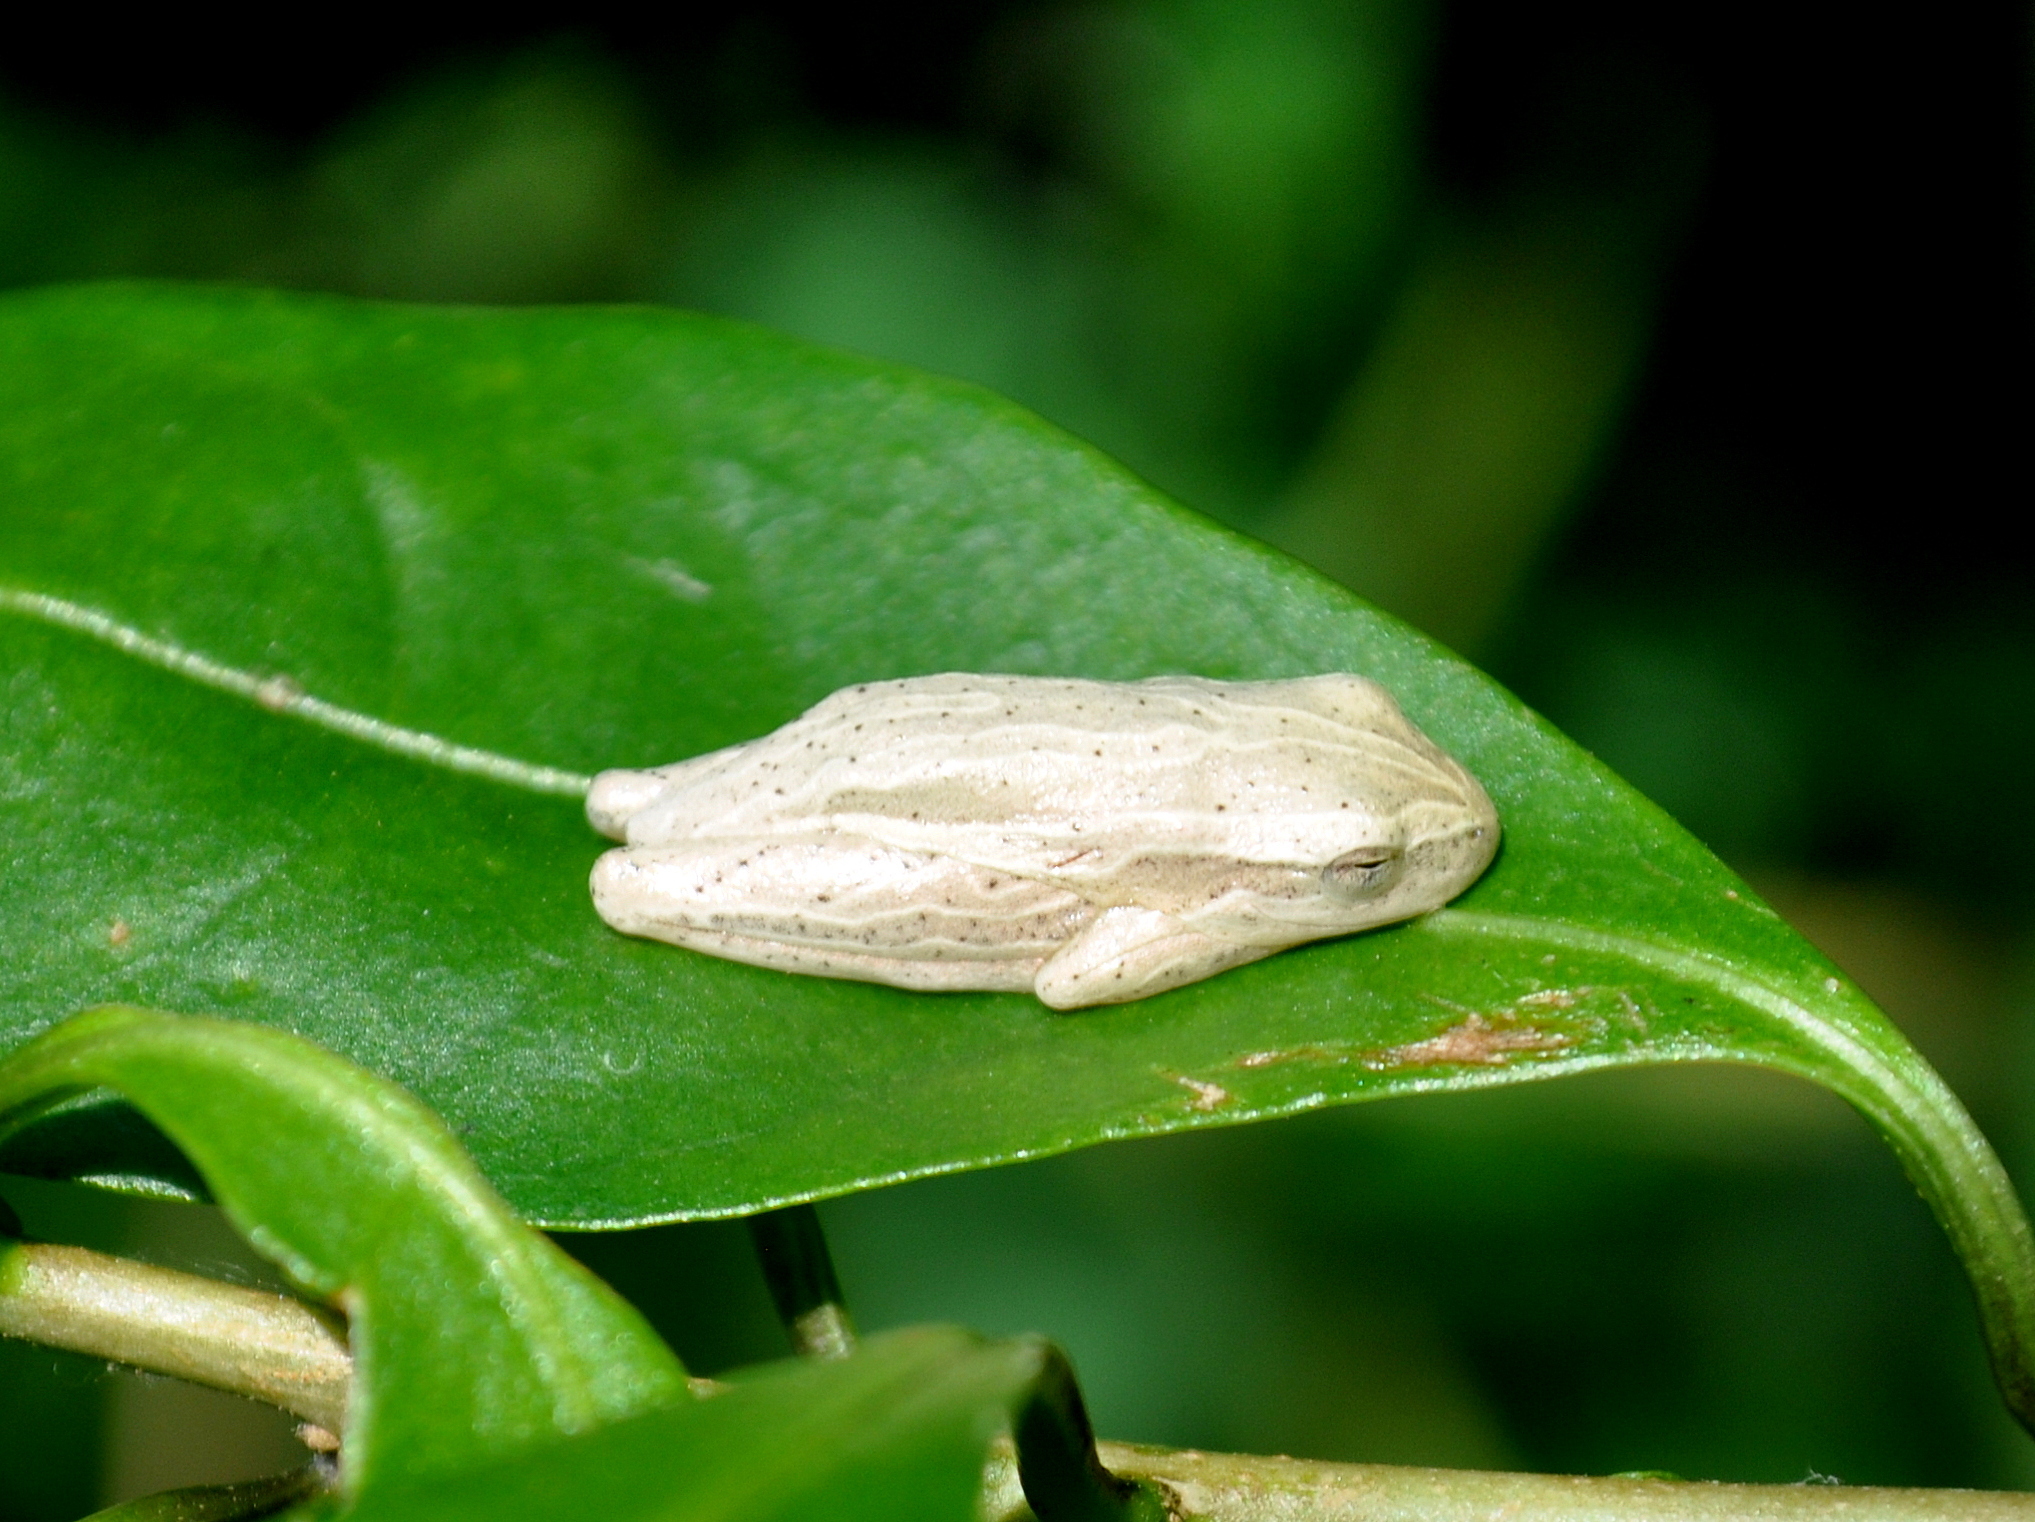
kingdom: Animalia
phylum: Chordata
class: Amphibia
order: Anura
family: Hylidae
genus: Dendropsophus
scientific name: Dendropsophus minutus
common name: Lesser treefrog
